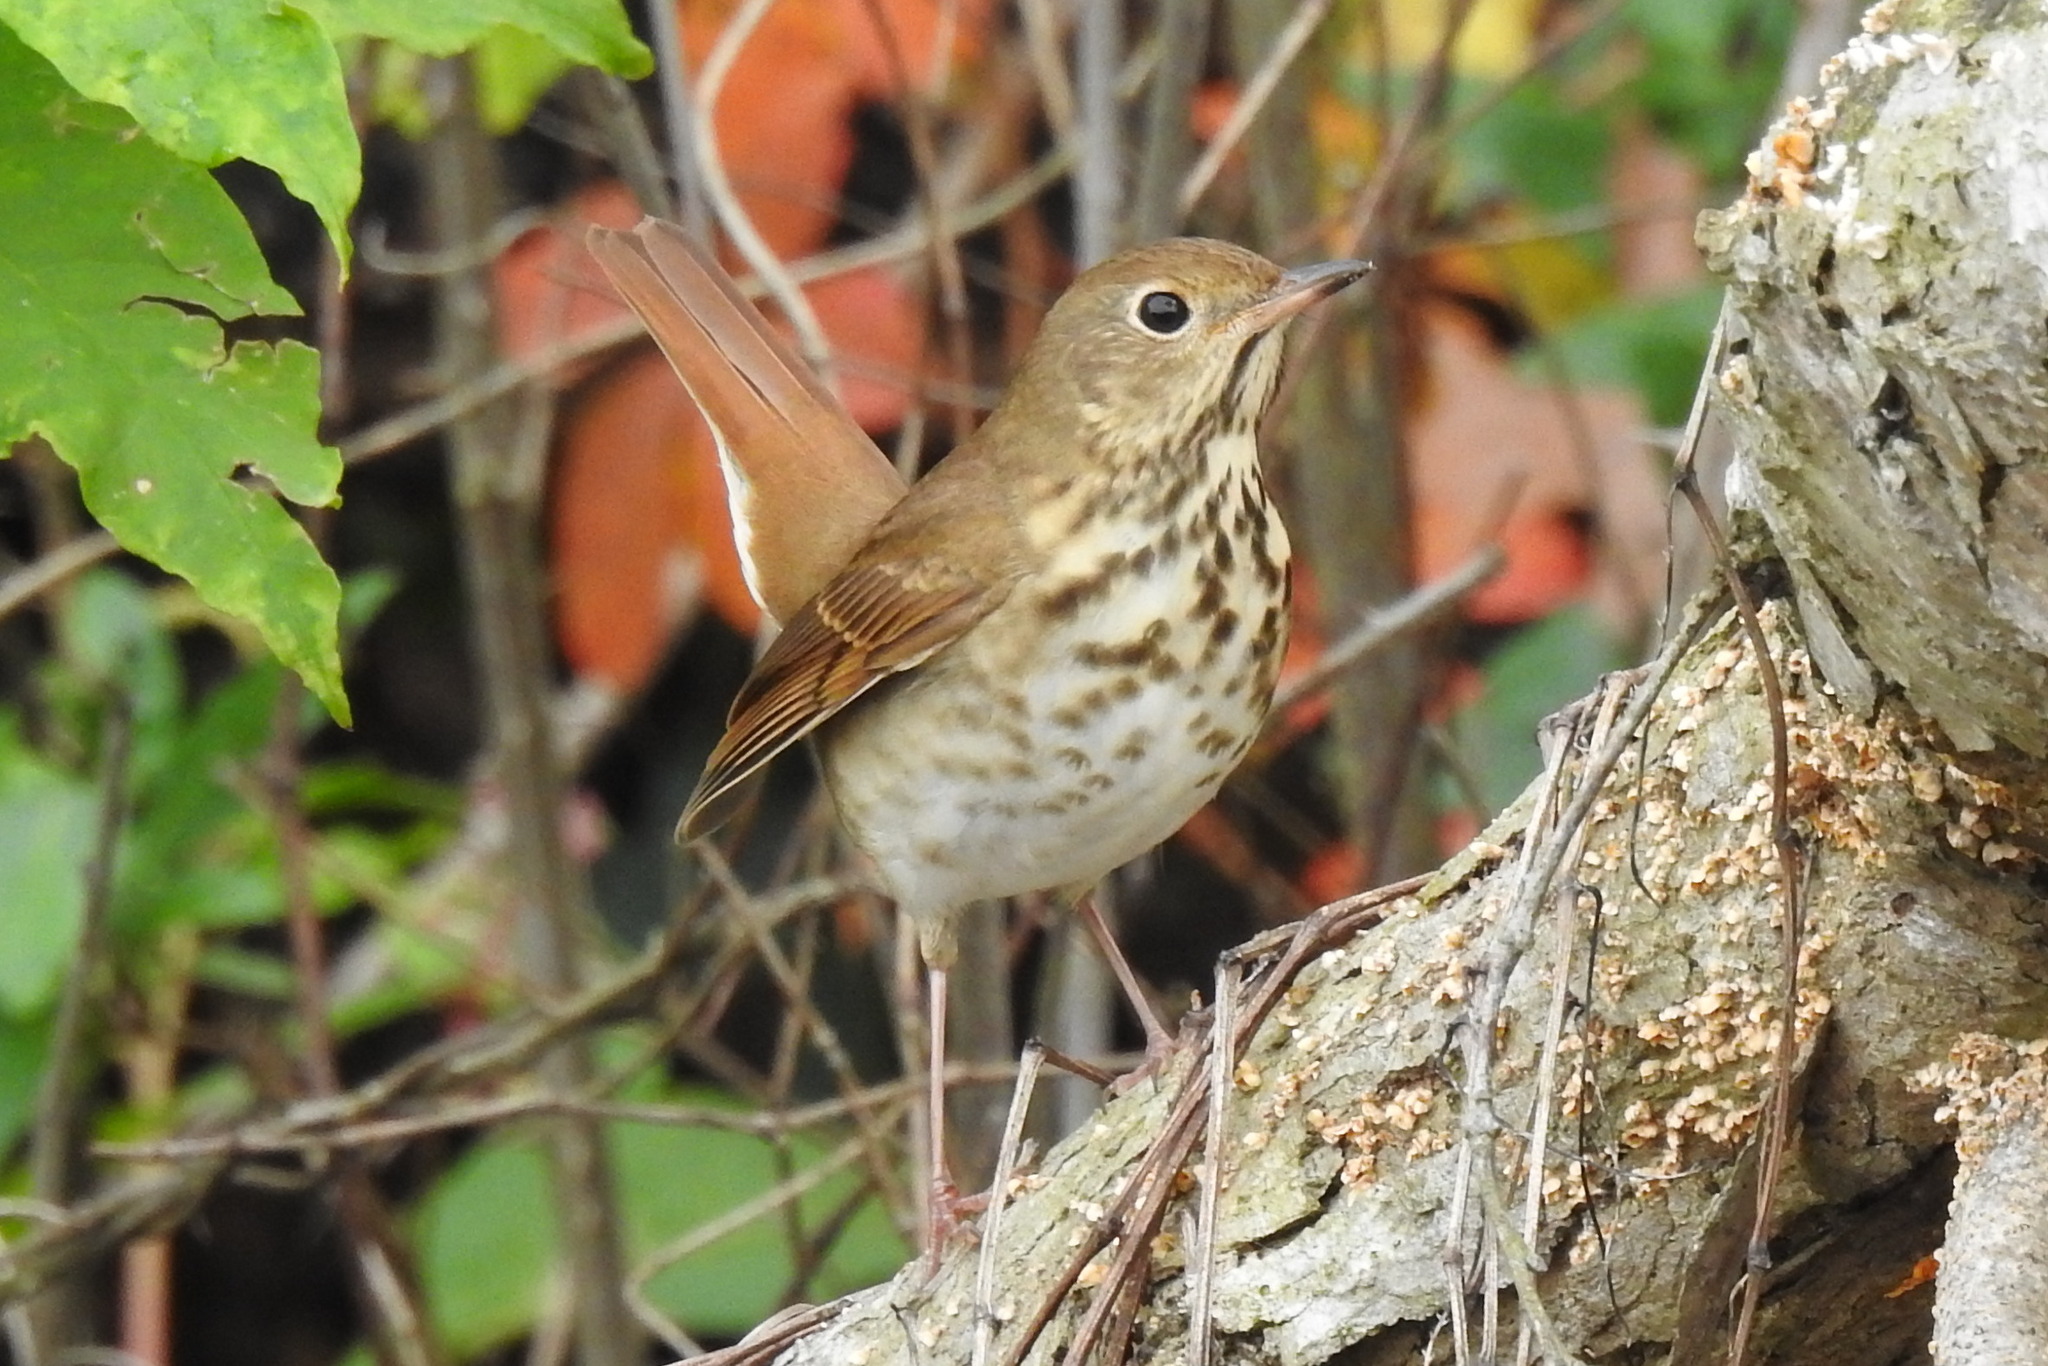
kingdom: Animalia
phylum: Chordata
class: Aves
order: Passeriformes
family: Turdidae
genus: Catharus
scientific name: Catharus guttatus
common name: Hermit thrush
